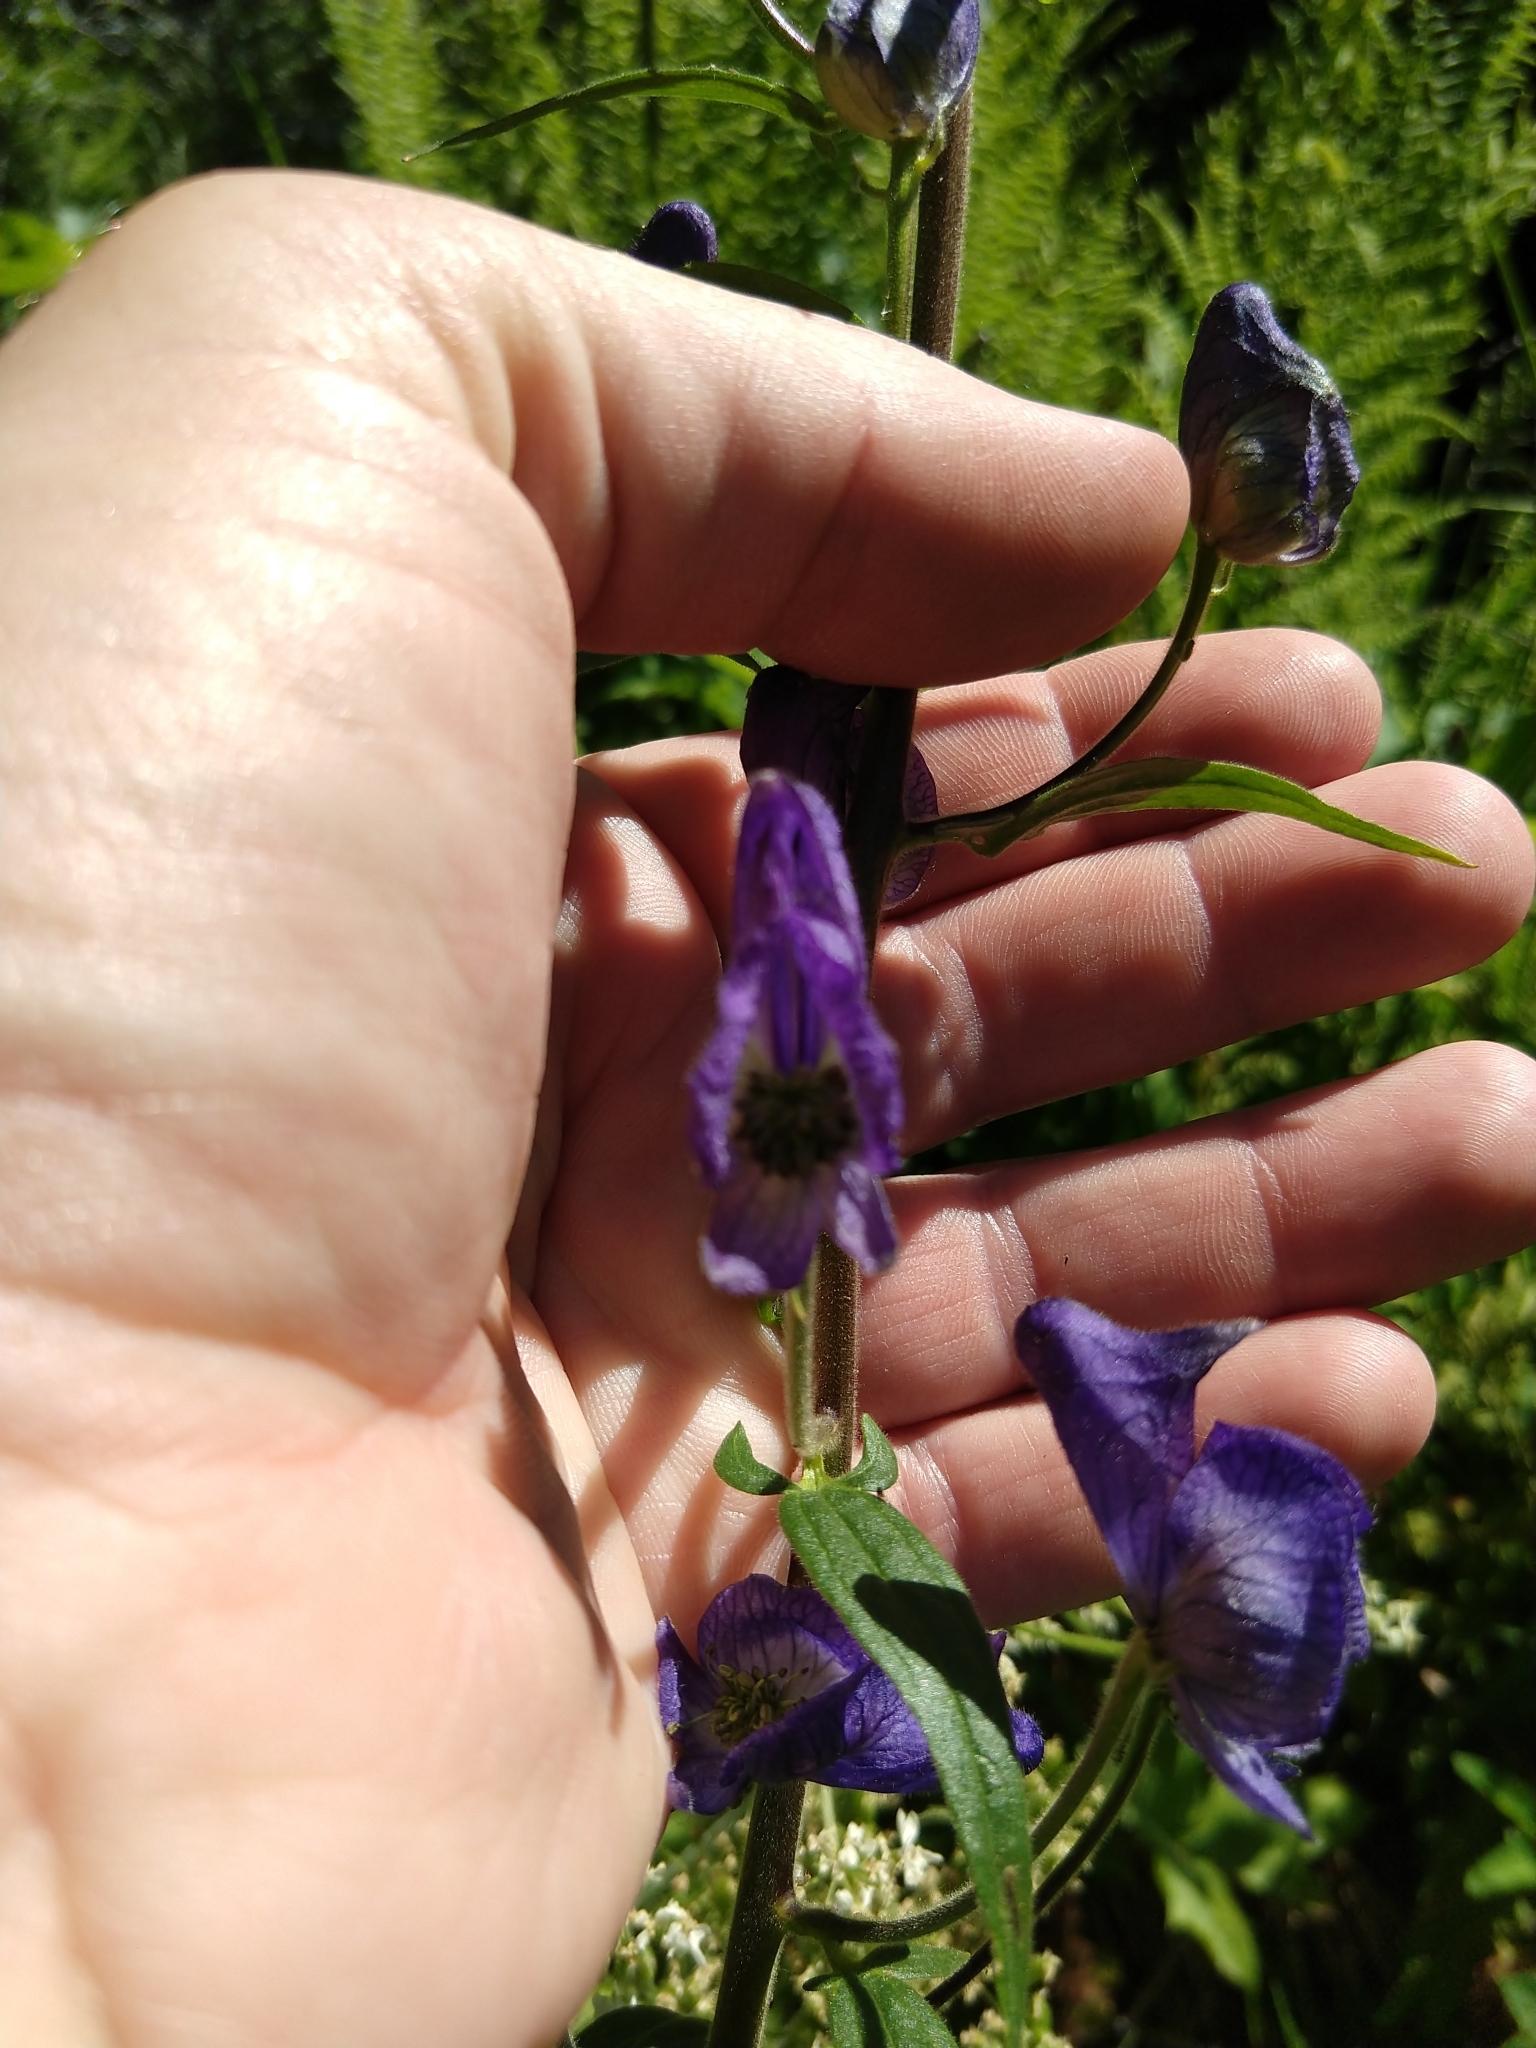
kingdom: Plantae
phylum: Tracheophyta
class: Magnoliopsida
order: Ranunculales
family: Ranunculaceae
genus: Aconitum
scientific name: Aconitum columbianum
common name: Columbia aconite
